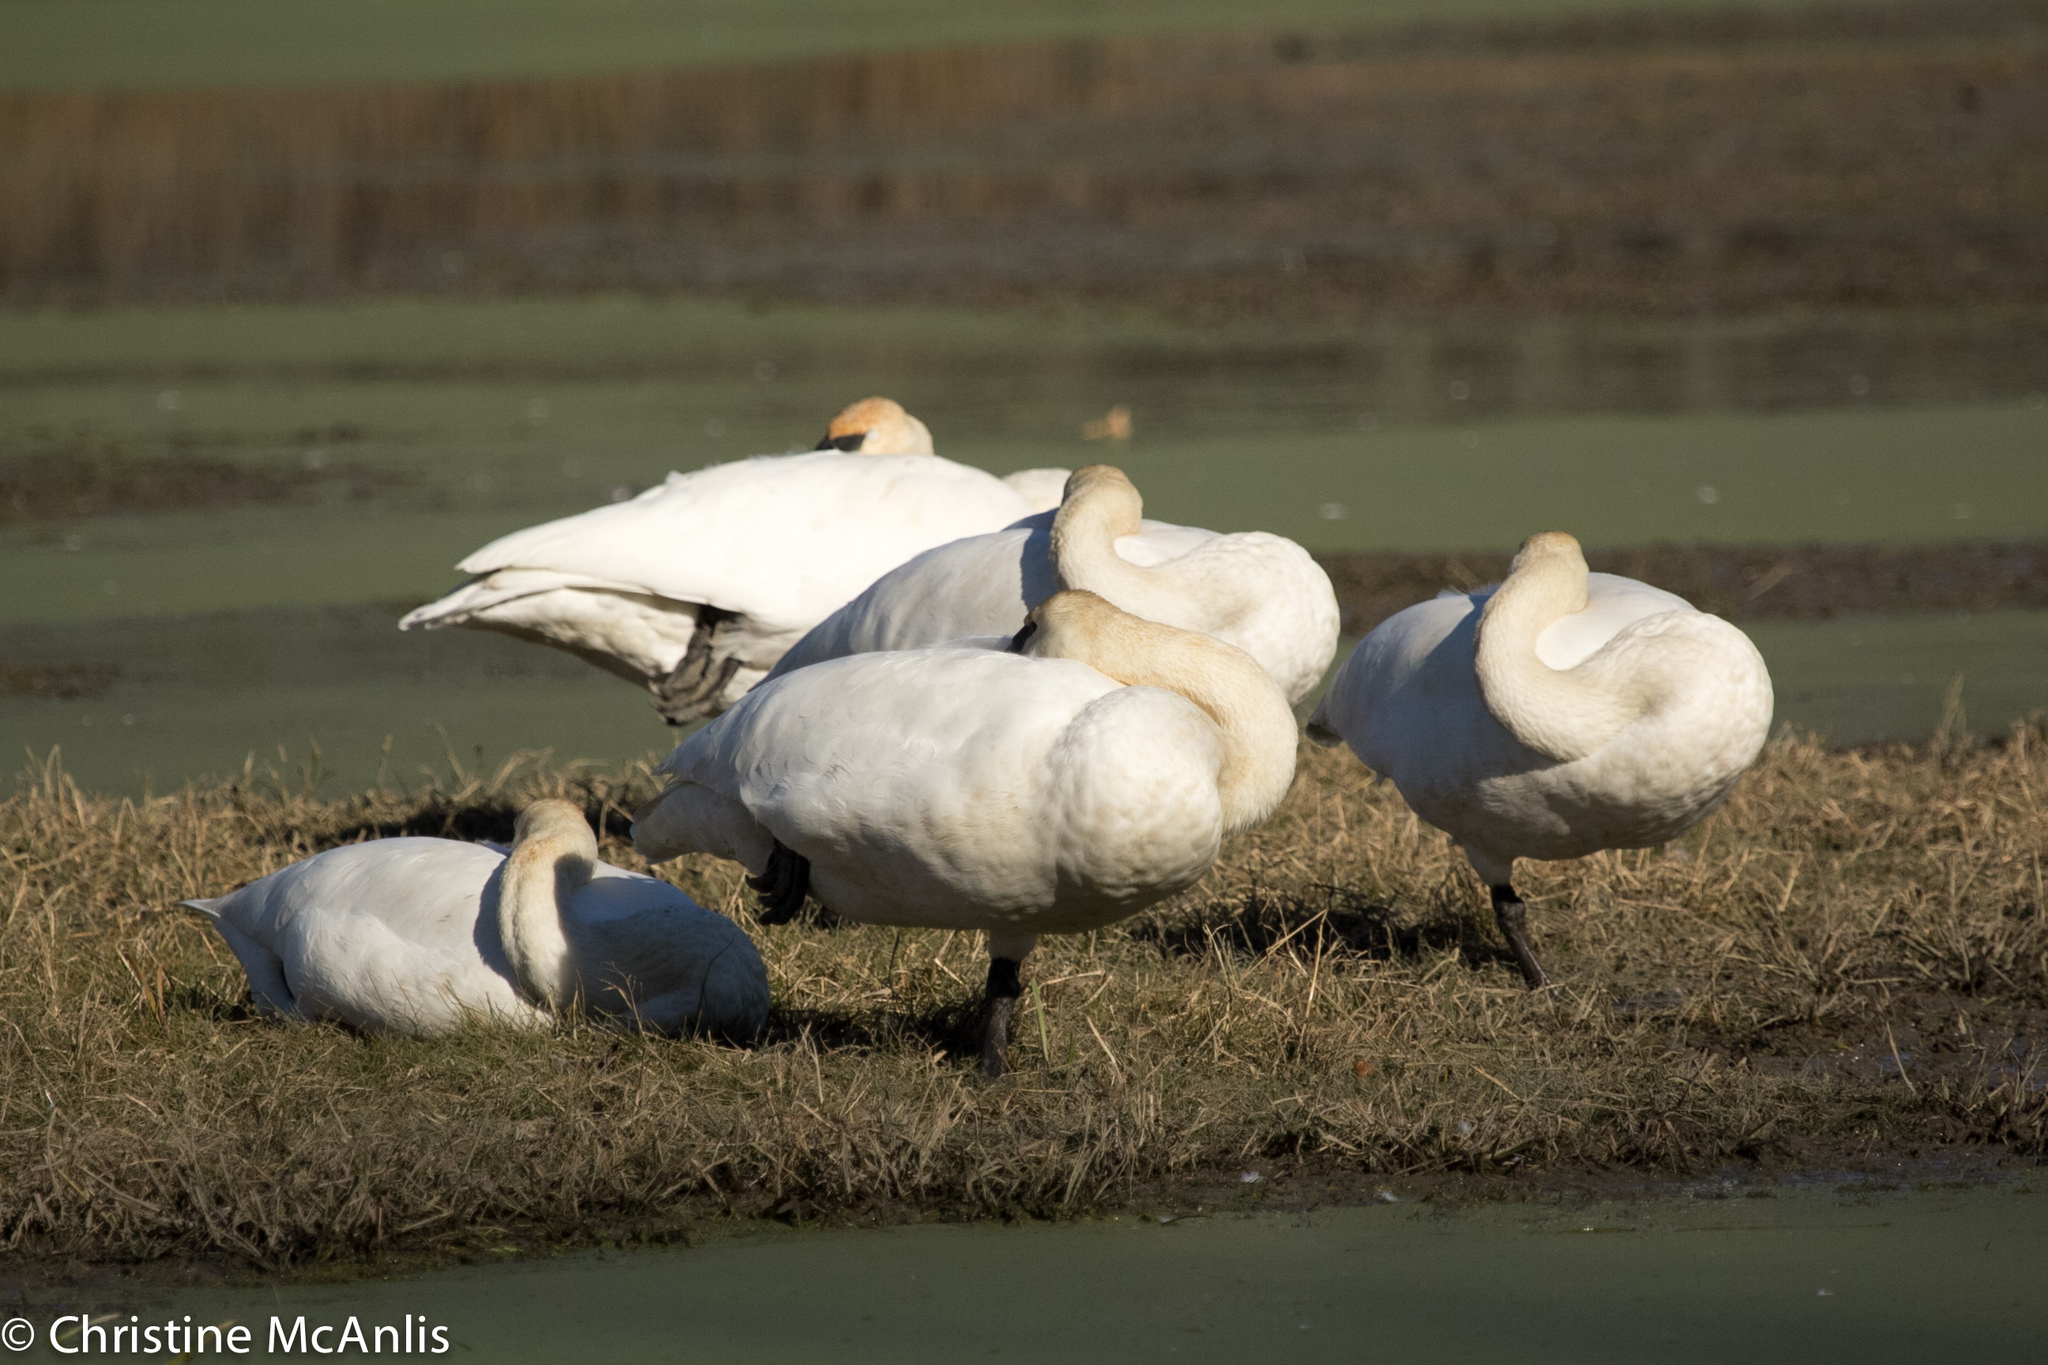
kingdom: Animalia
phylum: Chordata
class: Aves
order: Anseriformes
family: Anatidae
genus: Cygnus
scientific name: Cygnus columbianus
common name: Tundra swan
